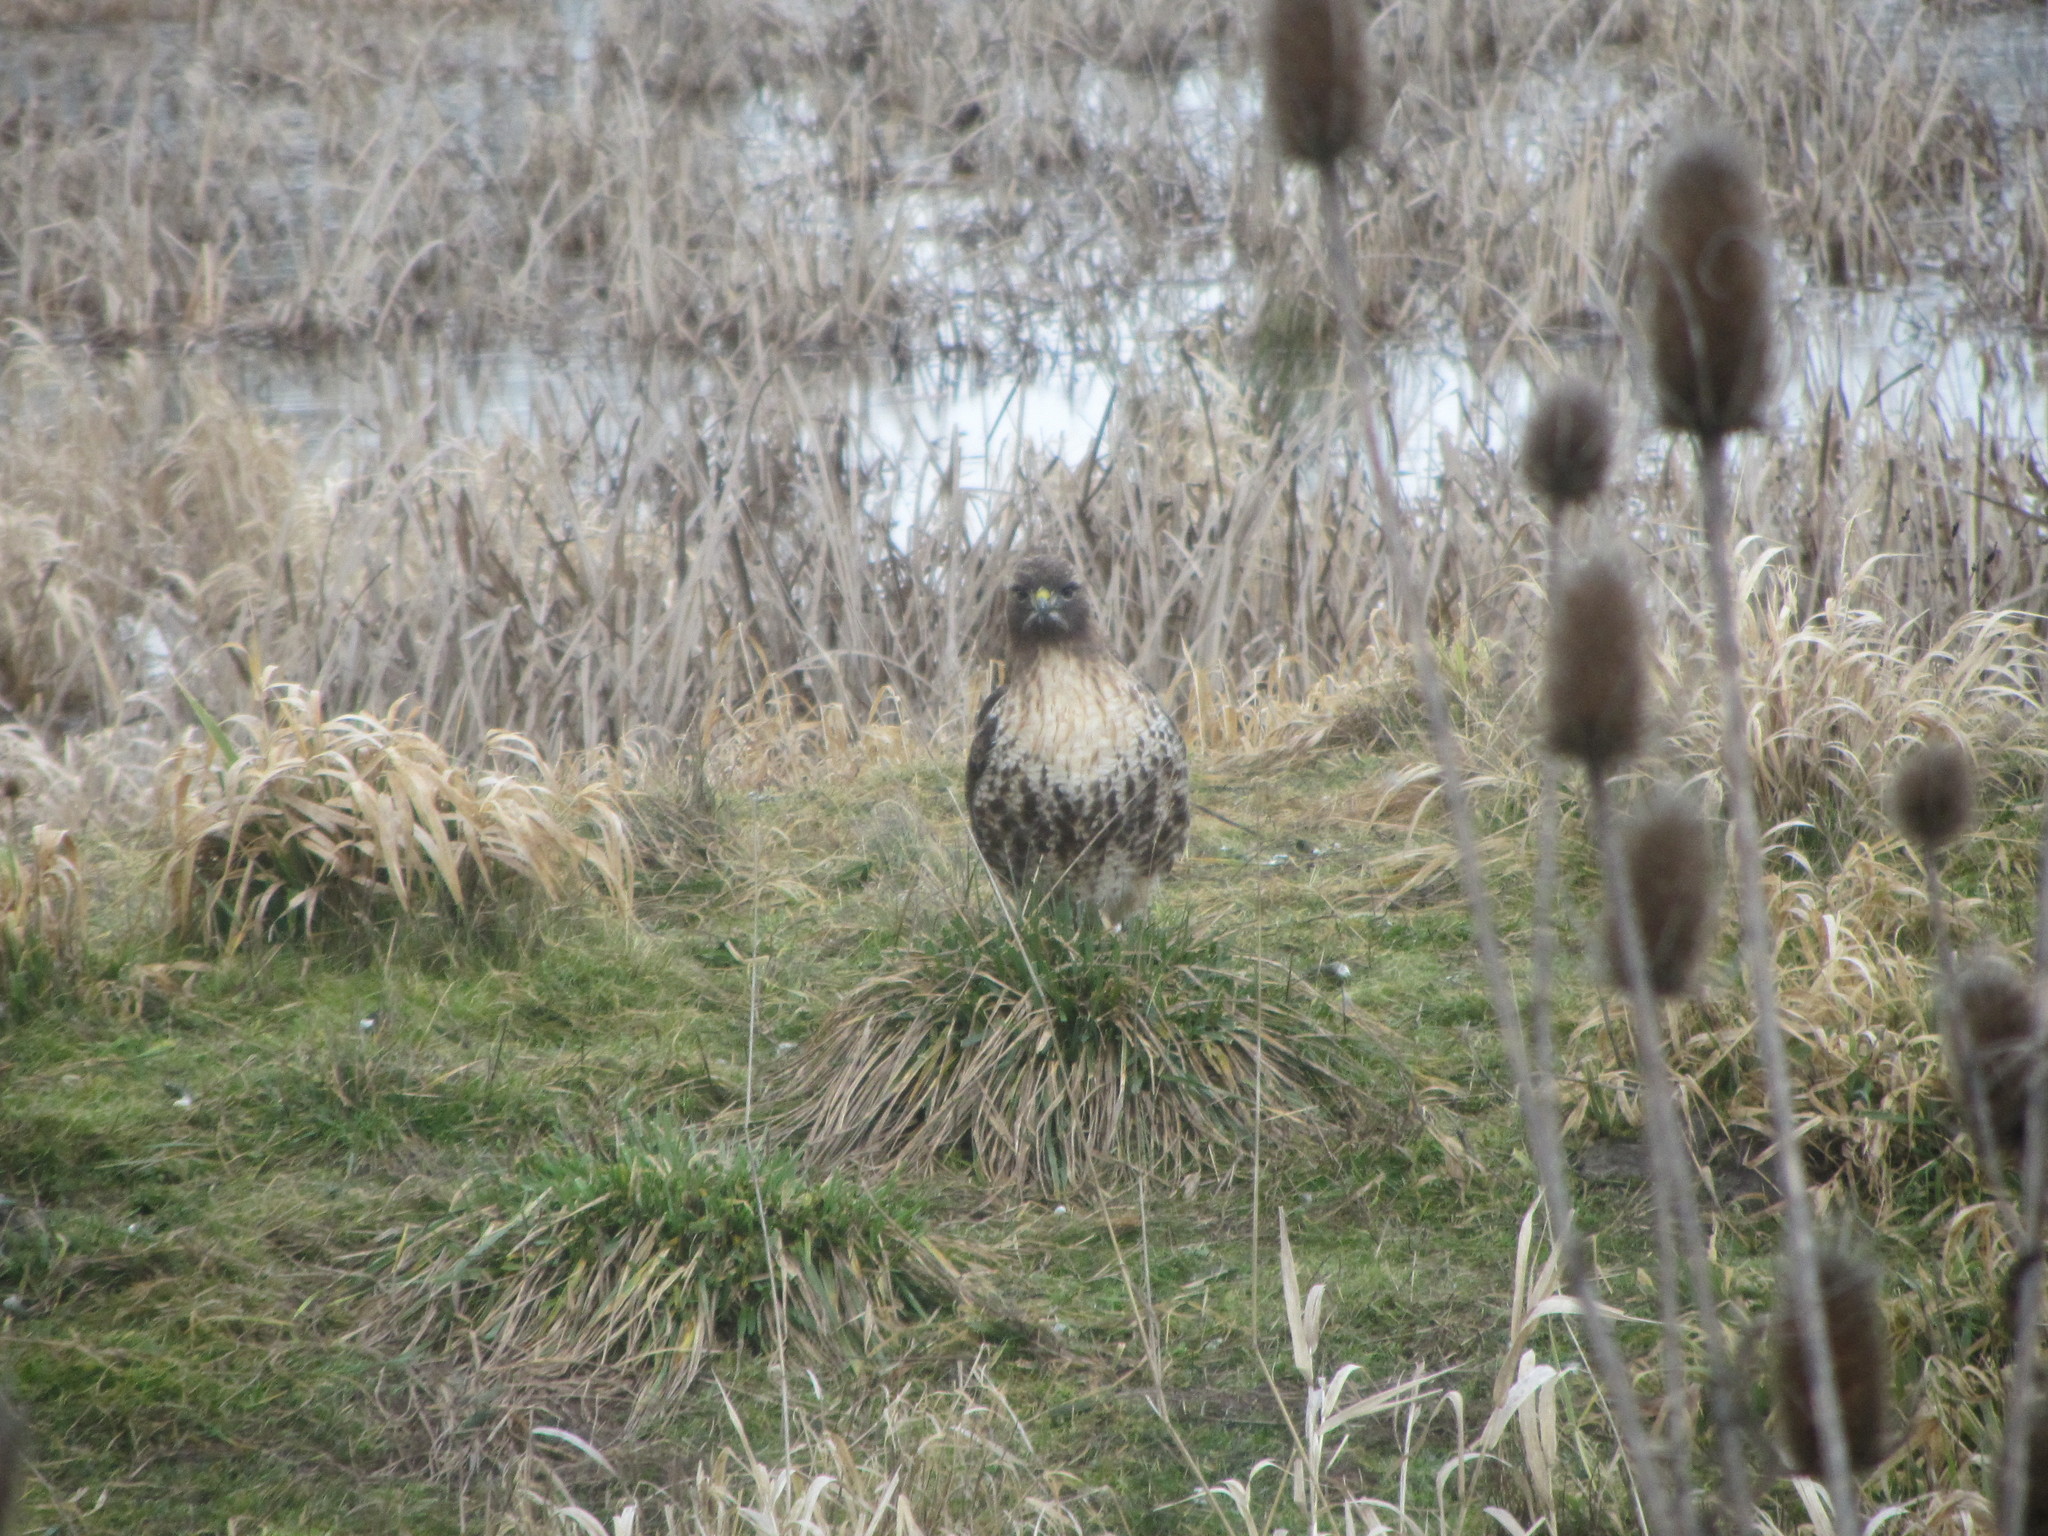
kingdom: Animalia
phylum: Chordata
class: Aves
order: Accipitriformes
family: Accipitridae
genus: Buteo
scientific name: Buteo jamaicensis
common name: Red-tailed hawk
